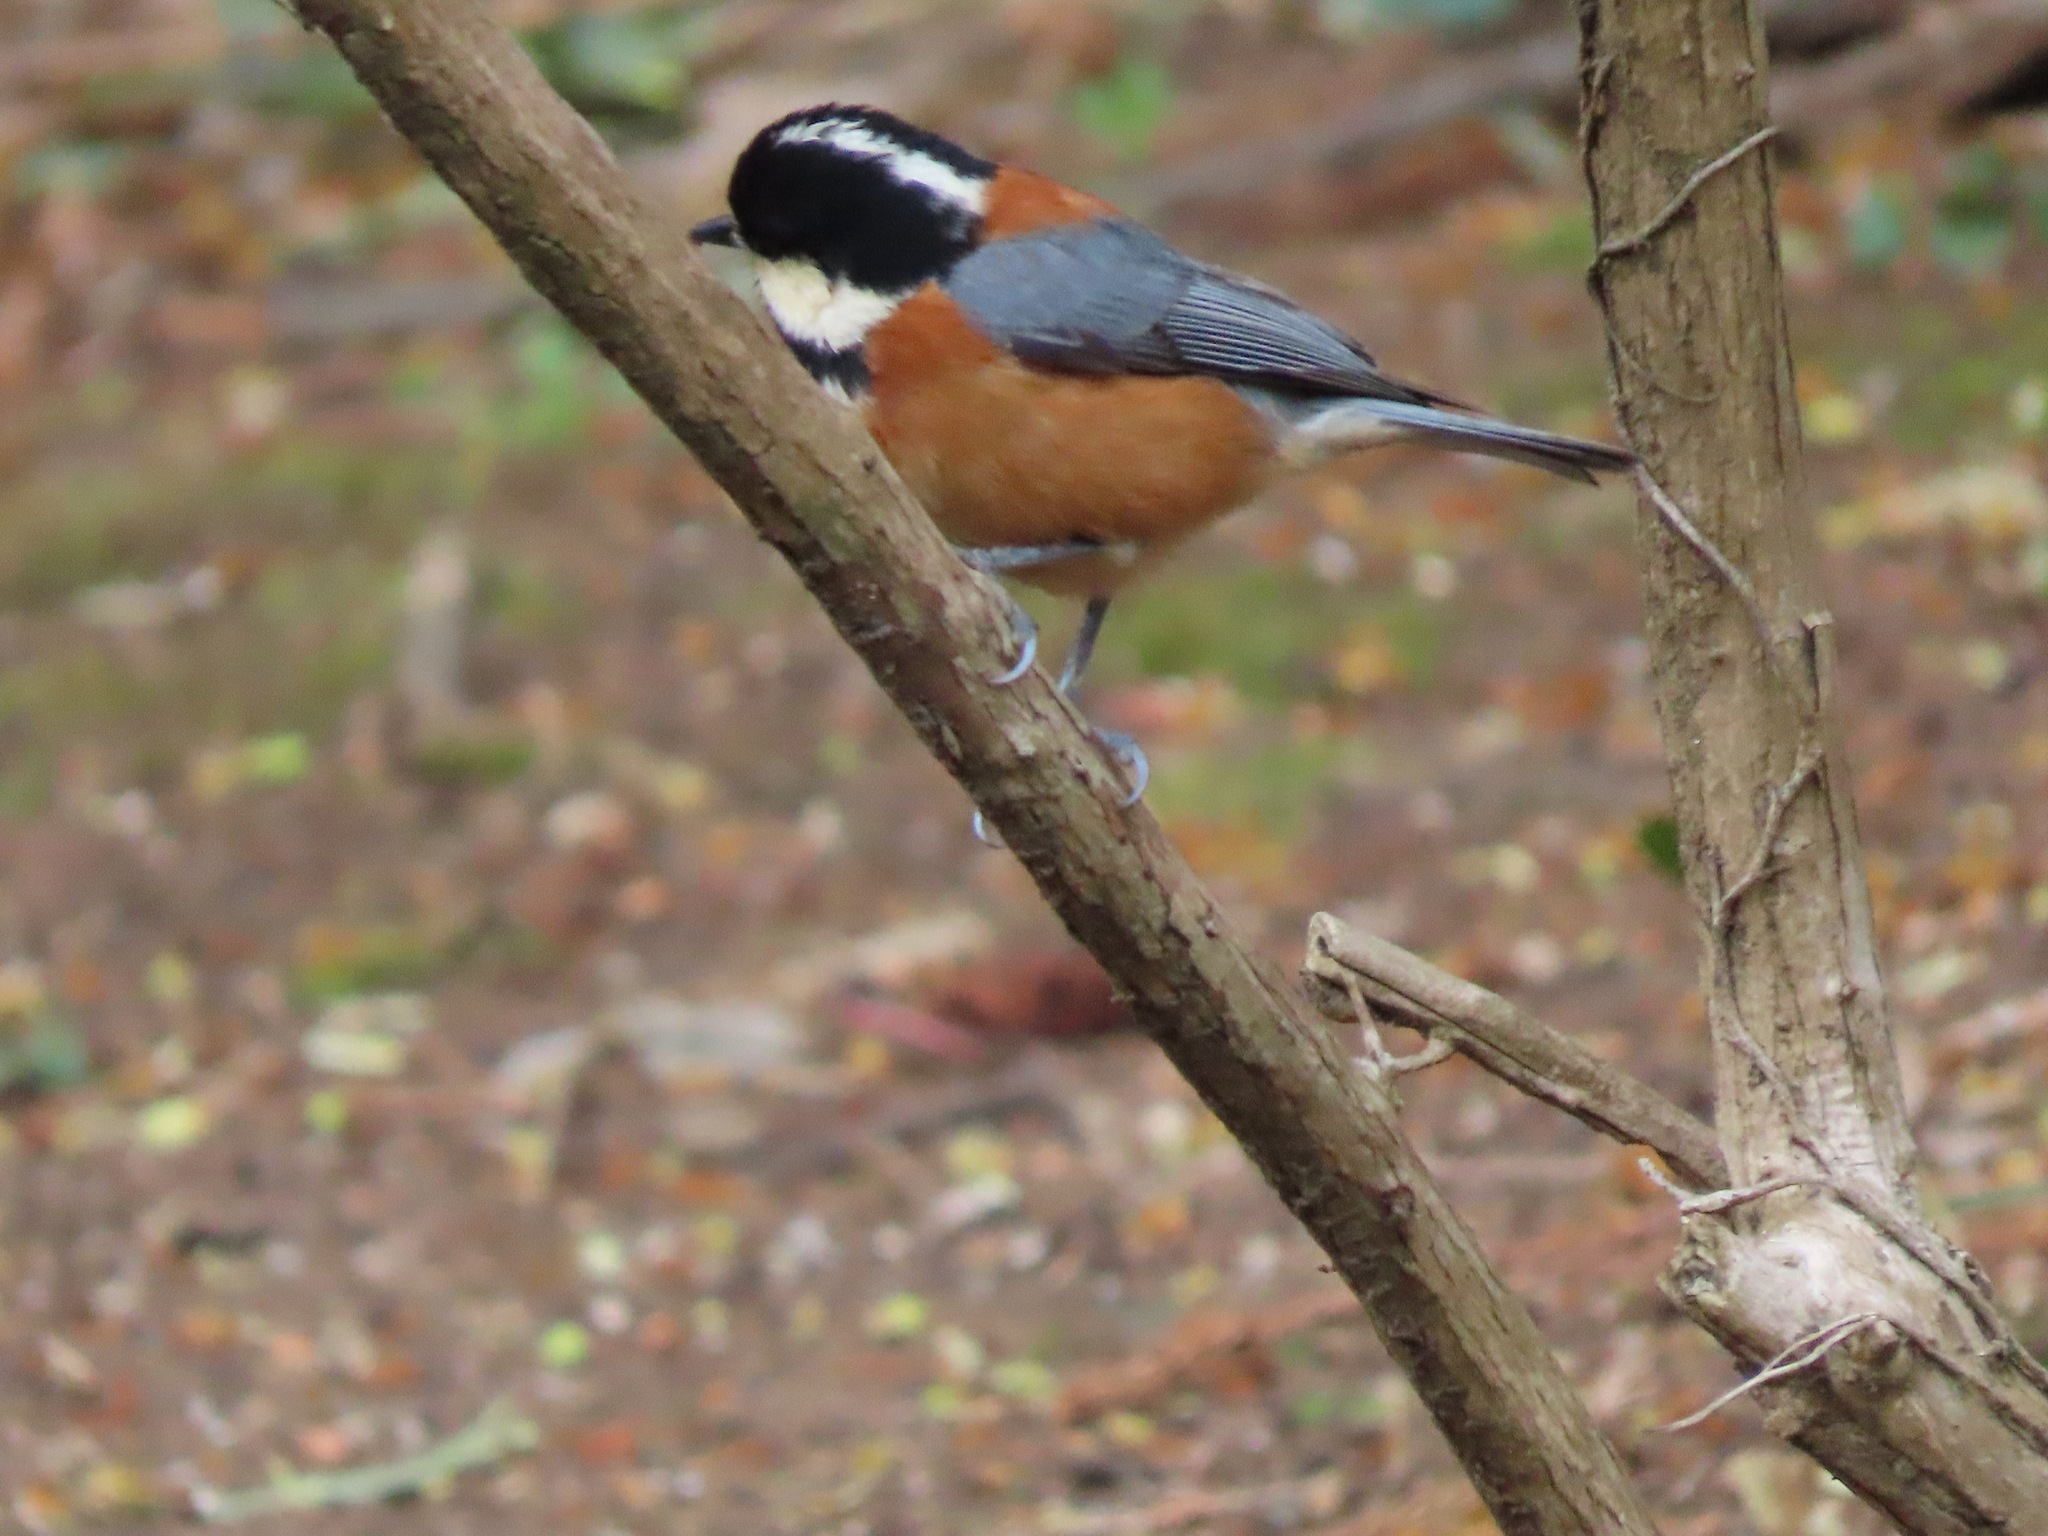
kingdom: Animalia
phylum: Chordata
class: Aves
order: Passeriformes
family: Paridae
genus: Poecile
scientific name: Poecile varius
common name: Varied tit
